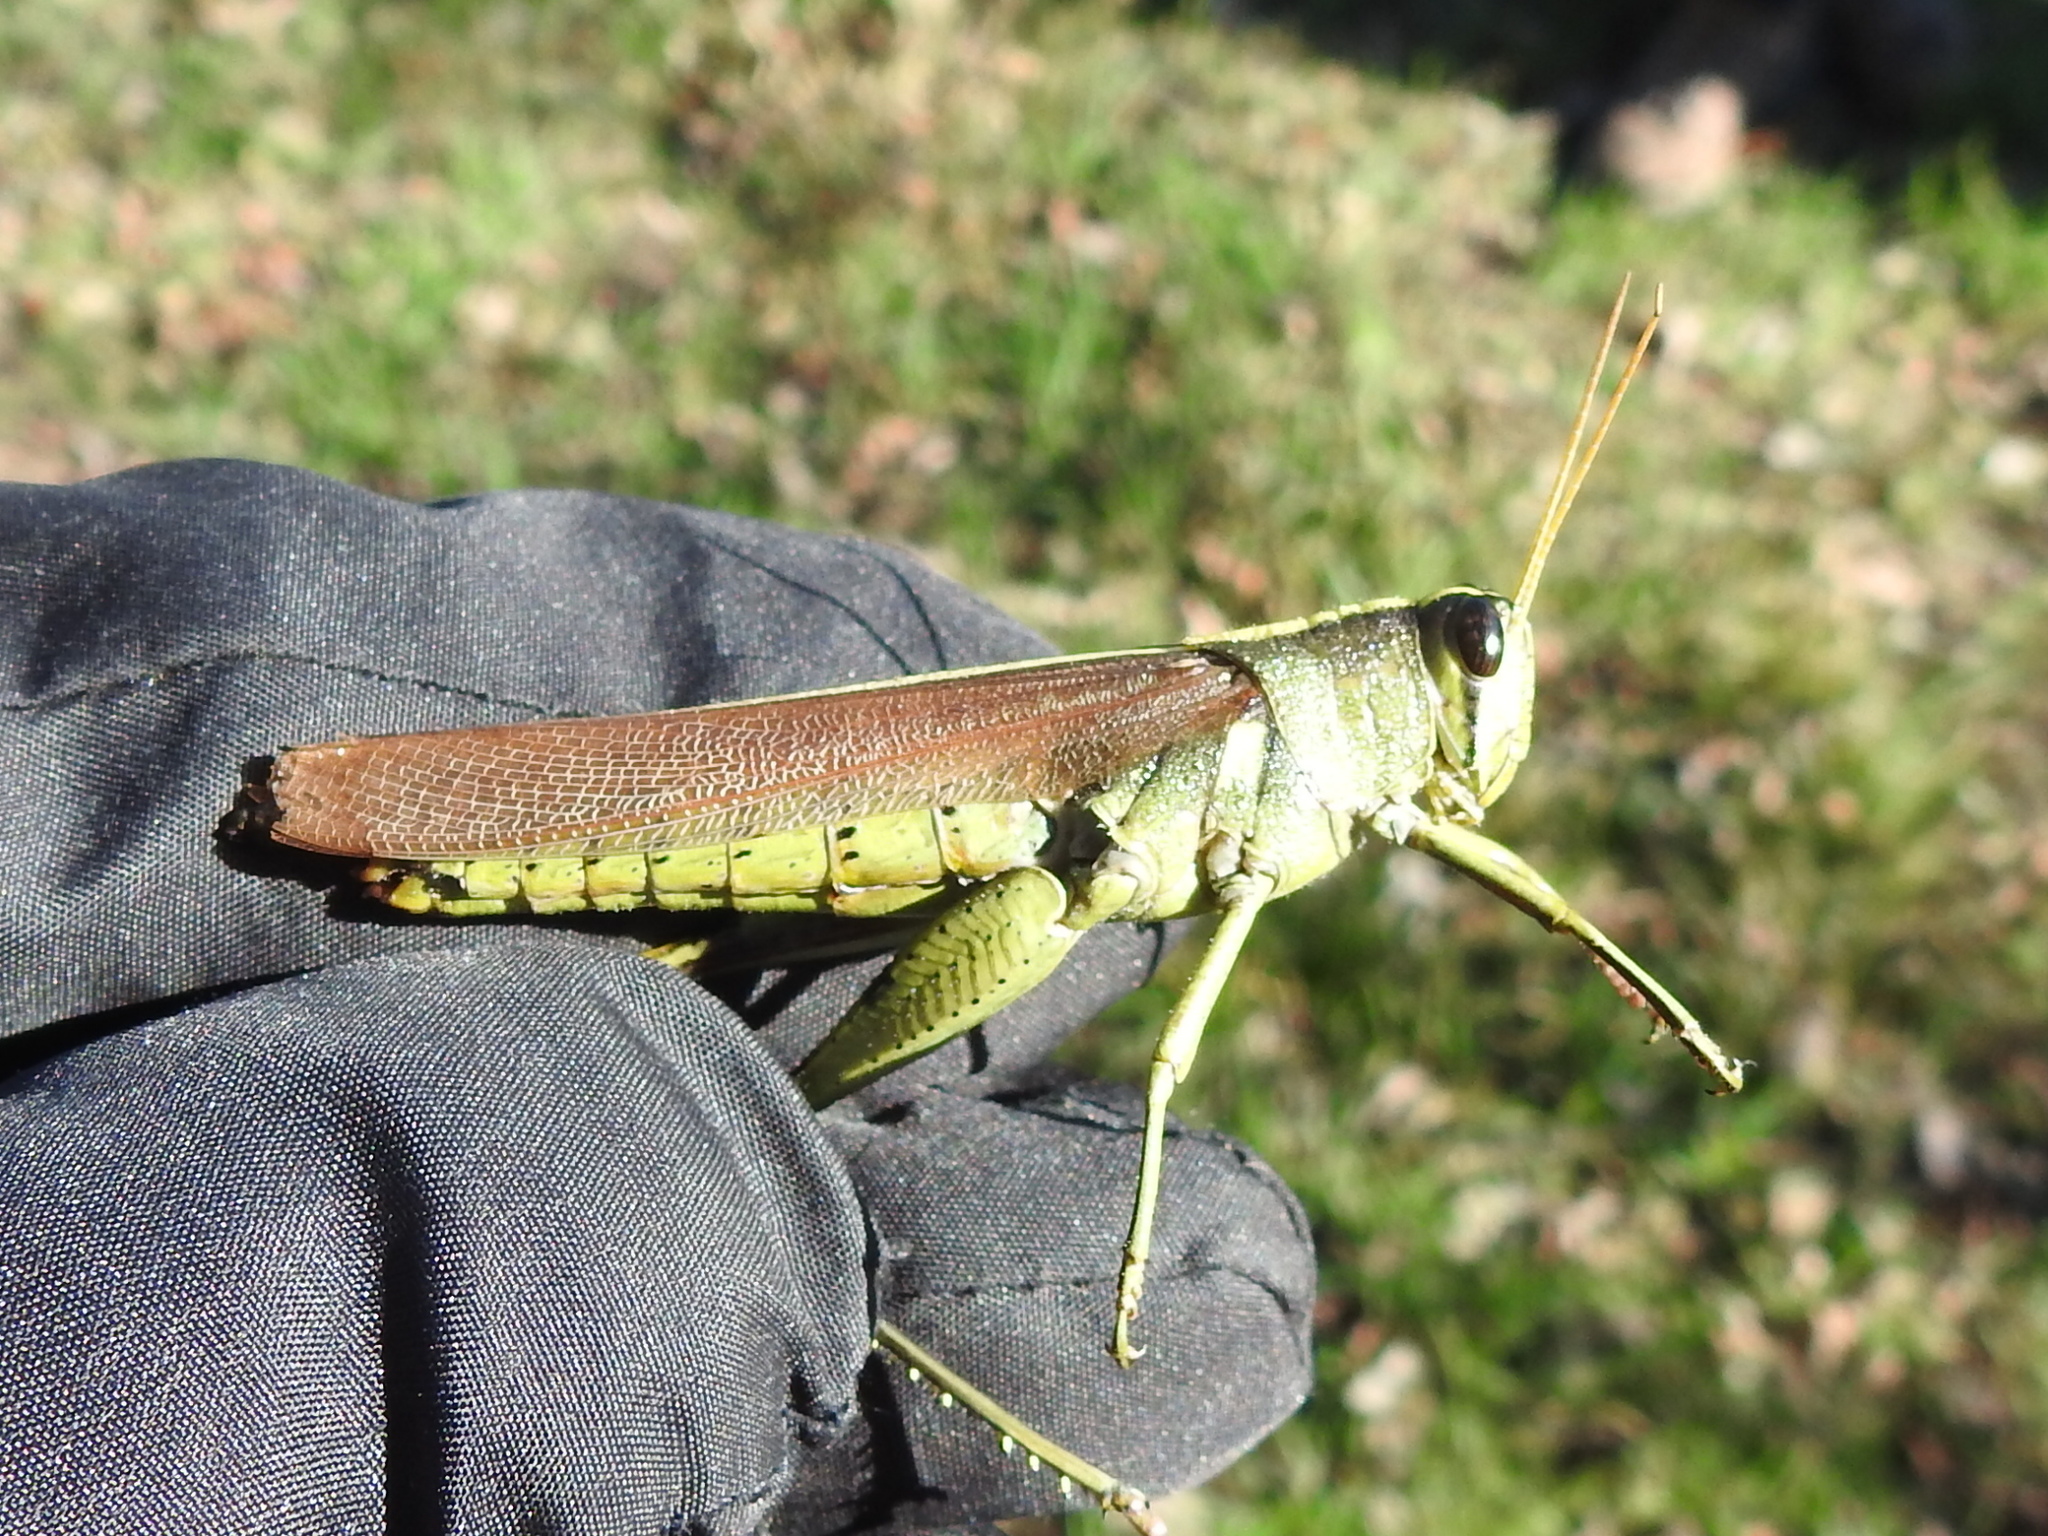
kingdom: Animalia
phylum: Arthropoda
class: Insecta
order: Orthoptera
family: Acrididae
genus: Schistocerca
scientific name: Schistocerca obscura
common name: Obscure bird grasshopper
